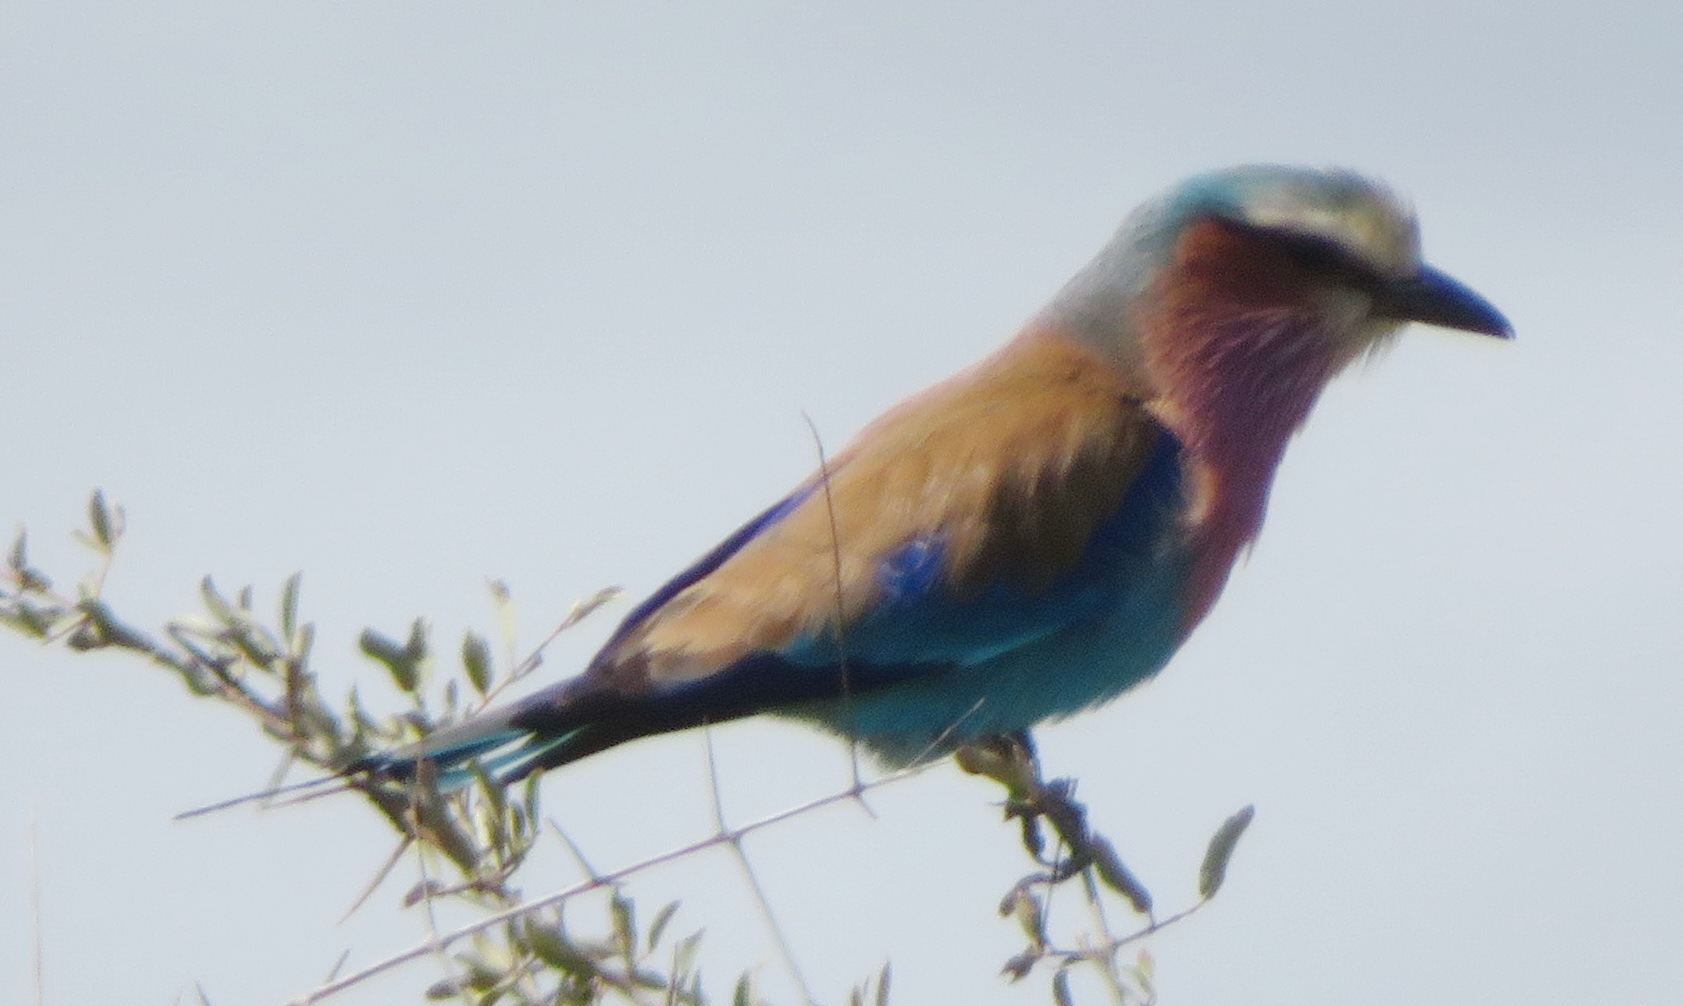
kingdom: Animalia
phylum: Chordata
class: Aves
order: Coraciiformes
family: Coraciidae
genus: Coracias
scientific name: Coracias caudatus
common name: Lilac-breasted roller
